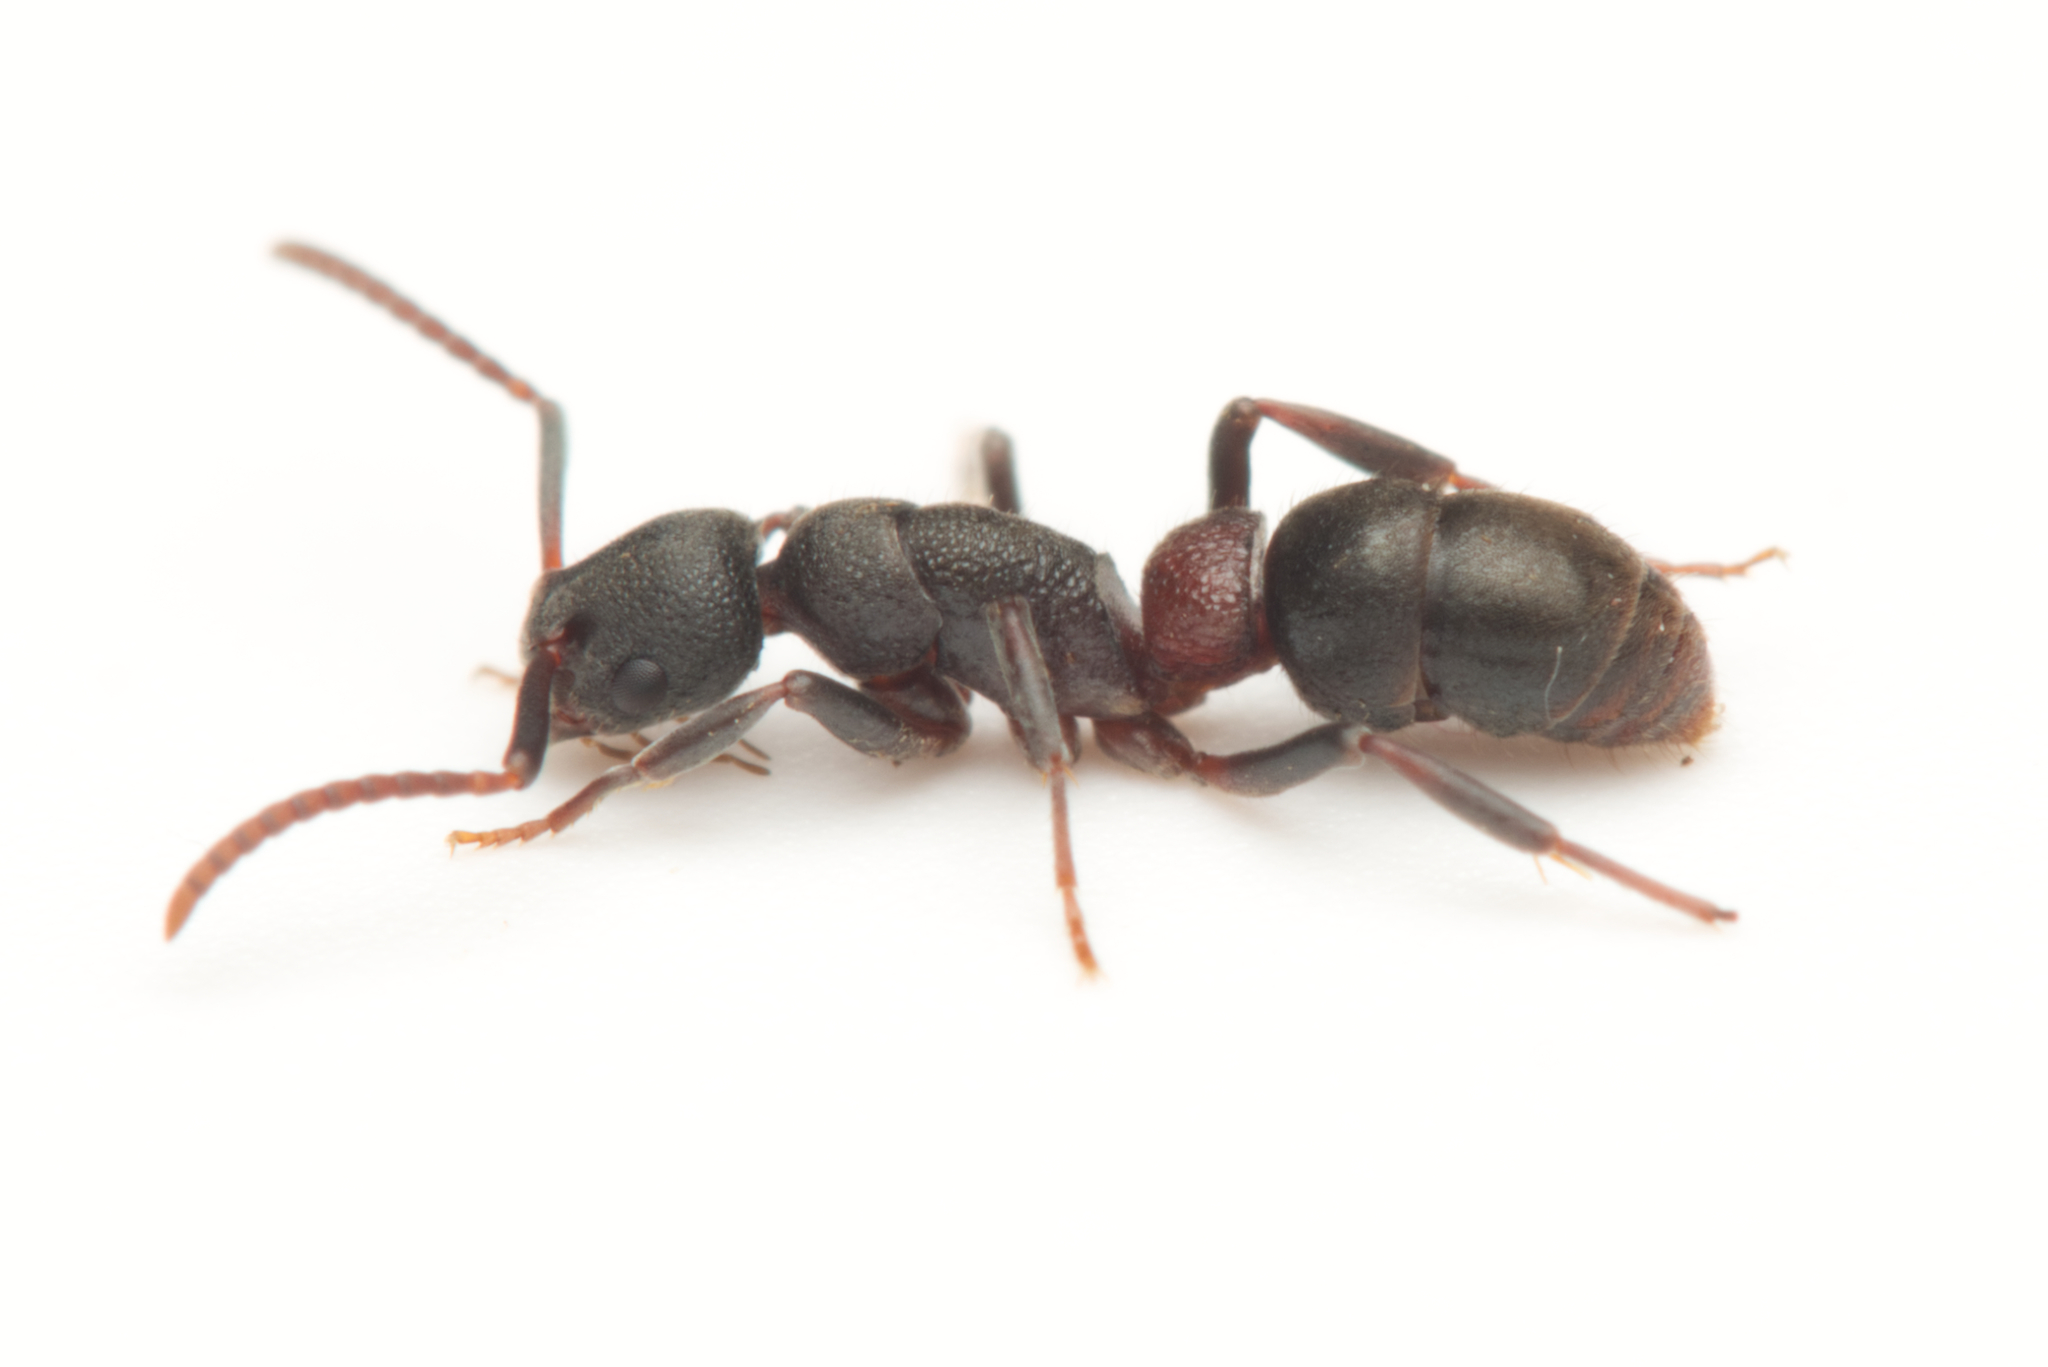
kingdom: Animalia
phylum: Arthropoda
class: Insecta
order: Hymenoptera
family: Formicidae
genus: Platythyrea
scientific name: Platythyrea turneri
